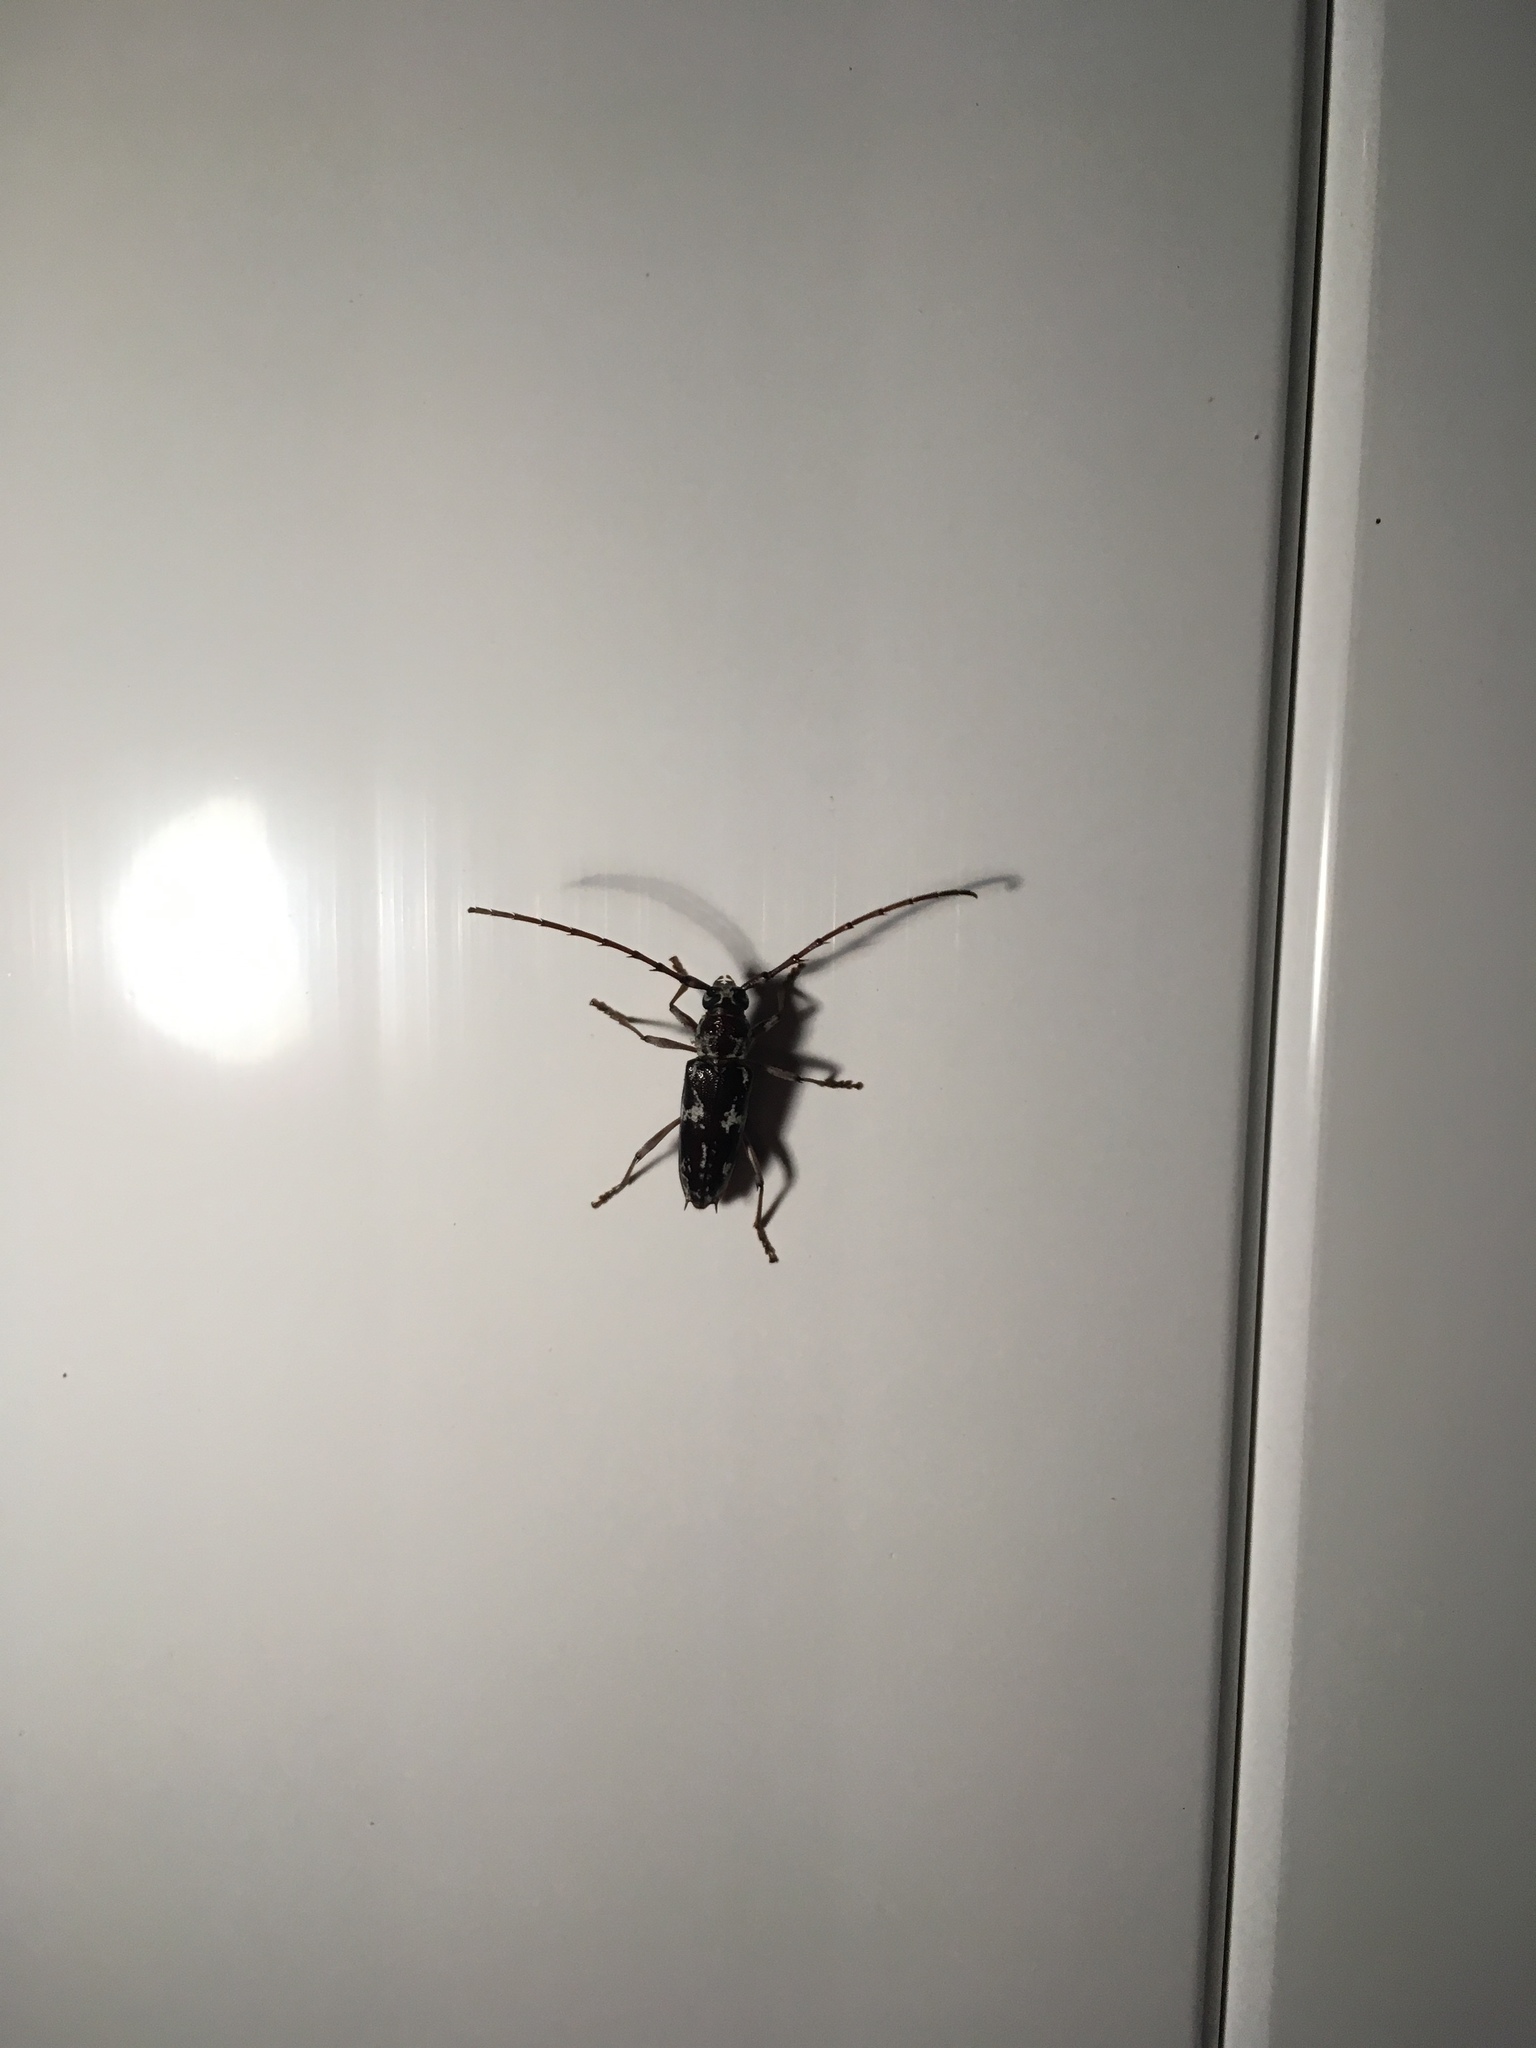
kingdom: Animalia
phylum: Arthropoda
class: Insecta
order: Coleoptera
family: Cerambycidae
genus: Elaphidion
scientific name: Elaphidion irroratum
